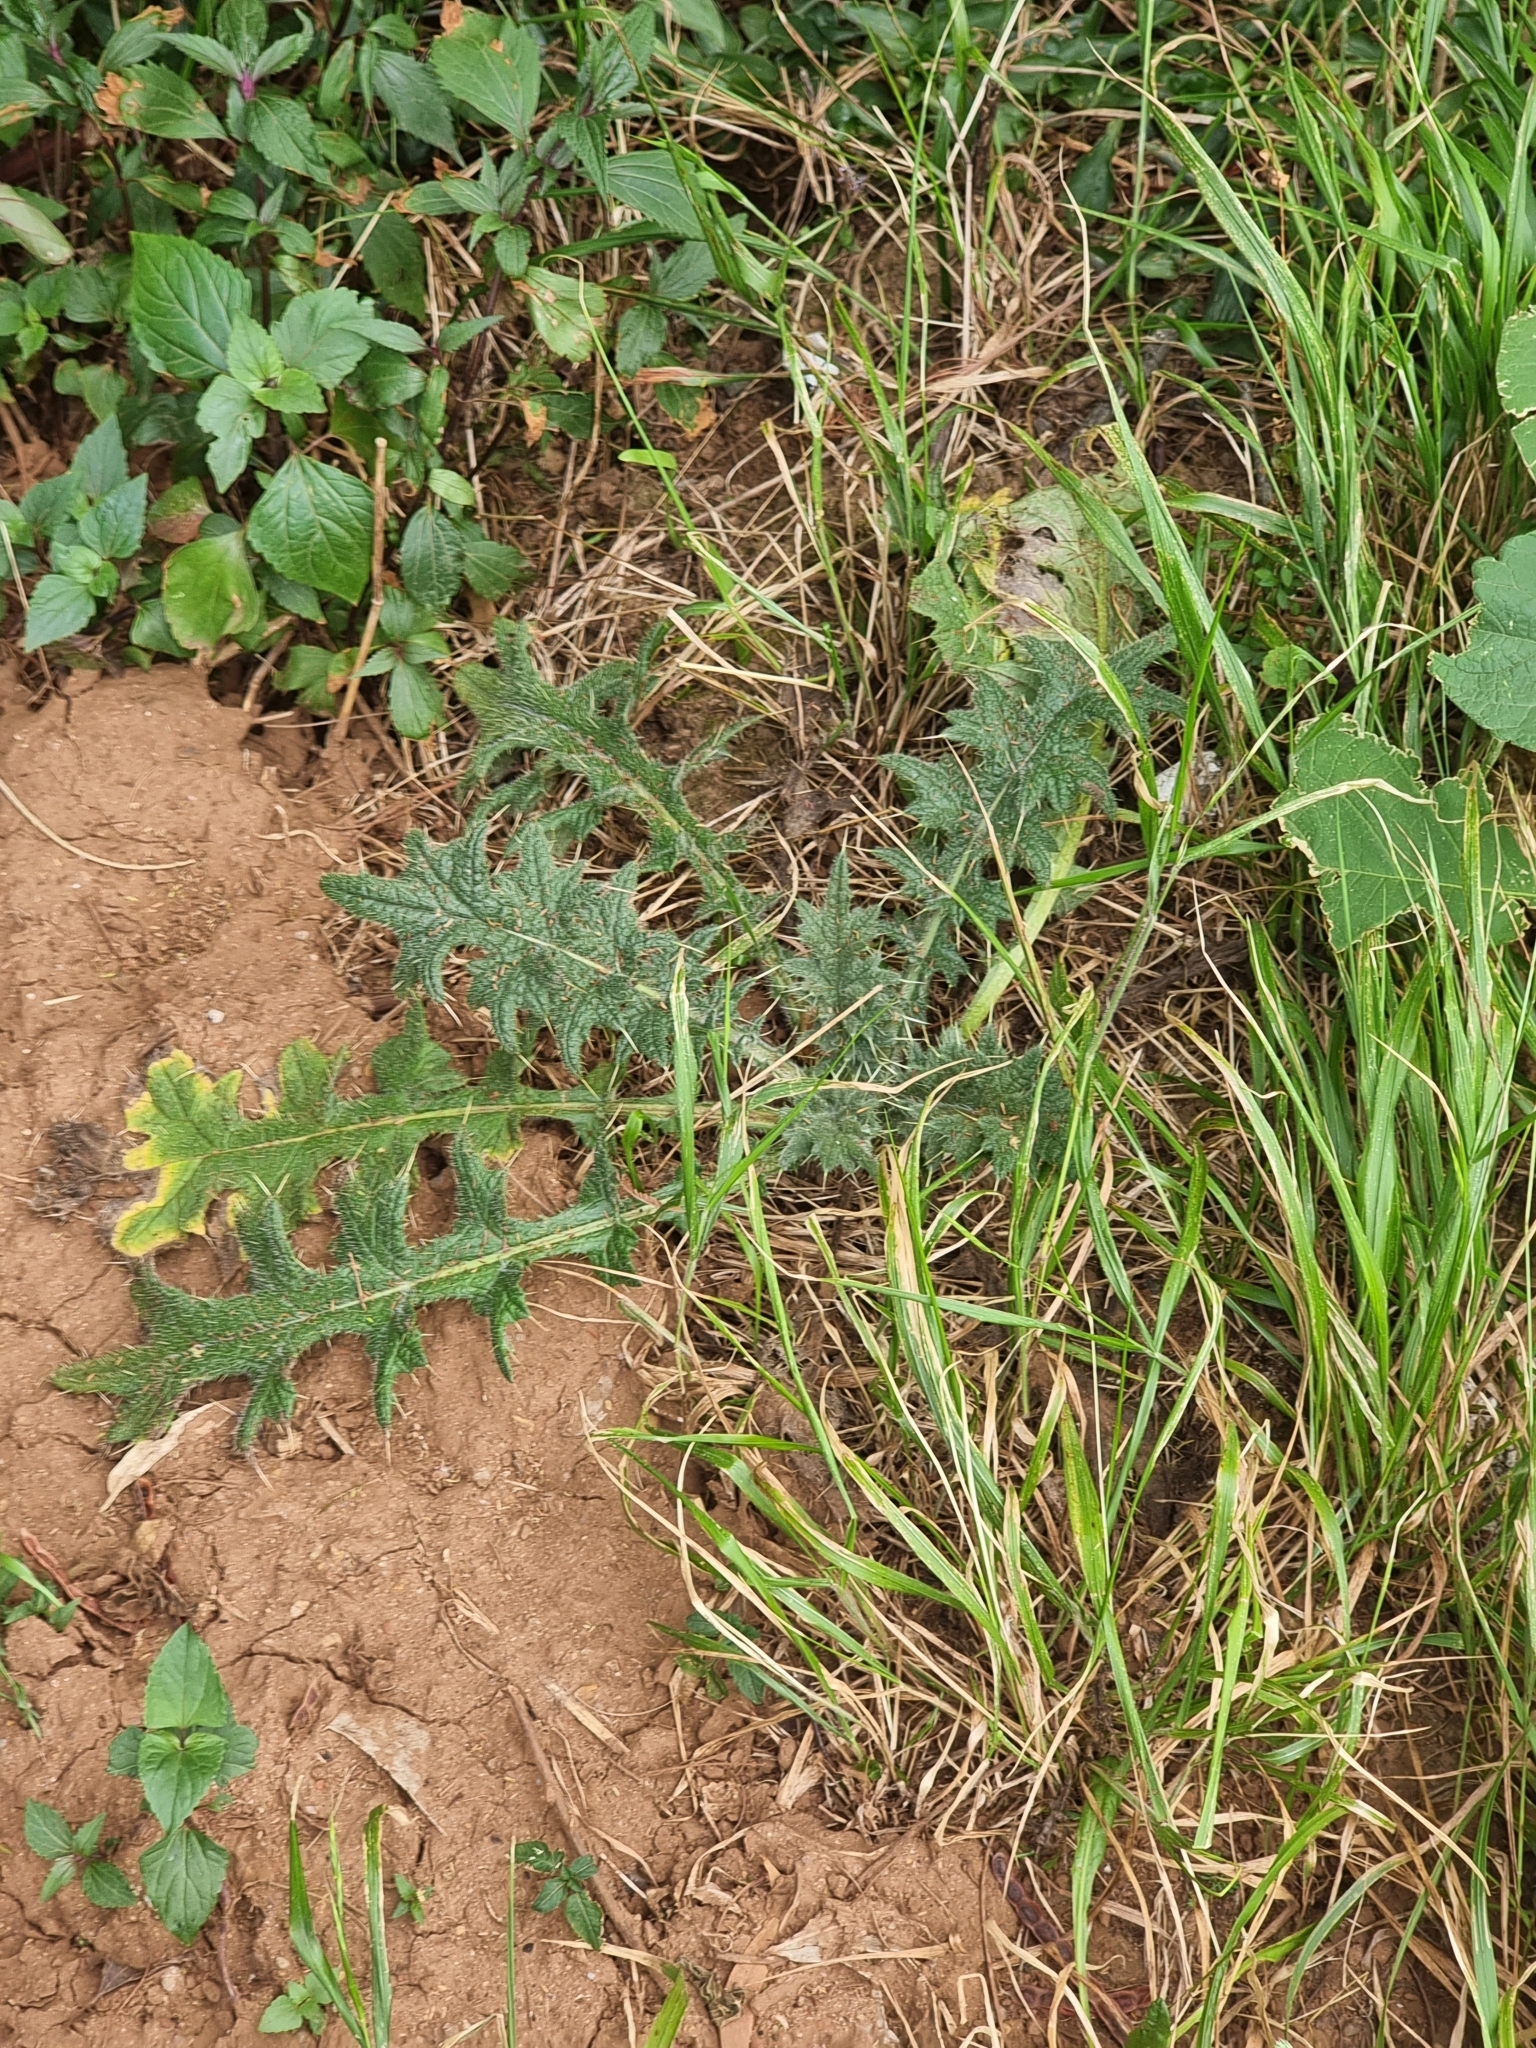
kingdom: Plantae
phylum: Tracheophyta
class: Magnoliopsida
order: Asterales
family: Asteraceae
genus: Cirsium
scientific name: Cirsium vulgare
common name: Bull thistle
